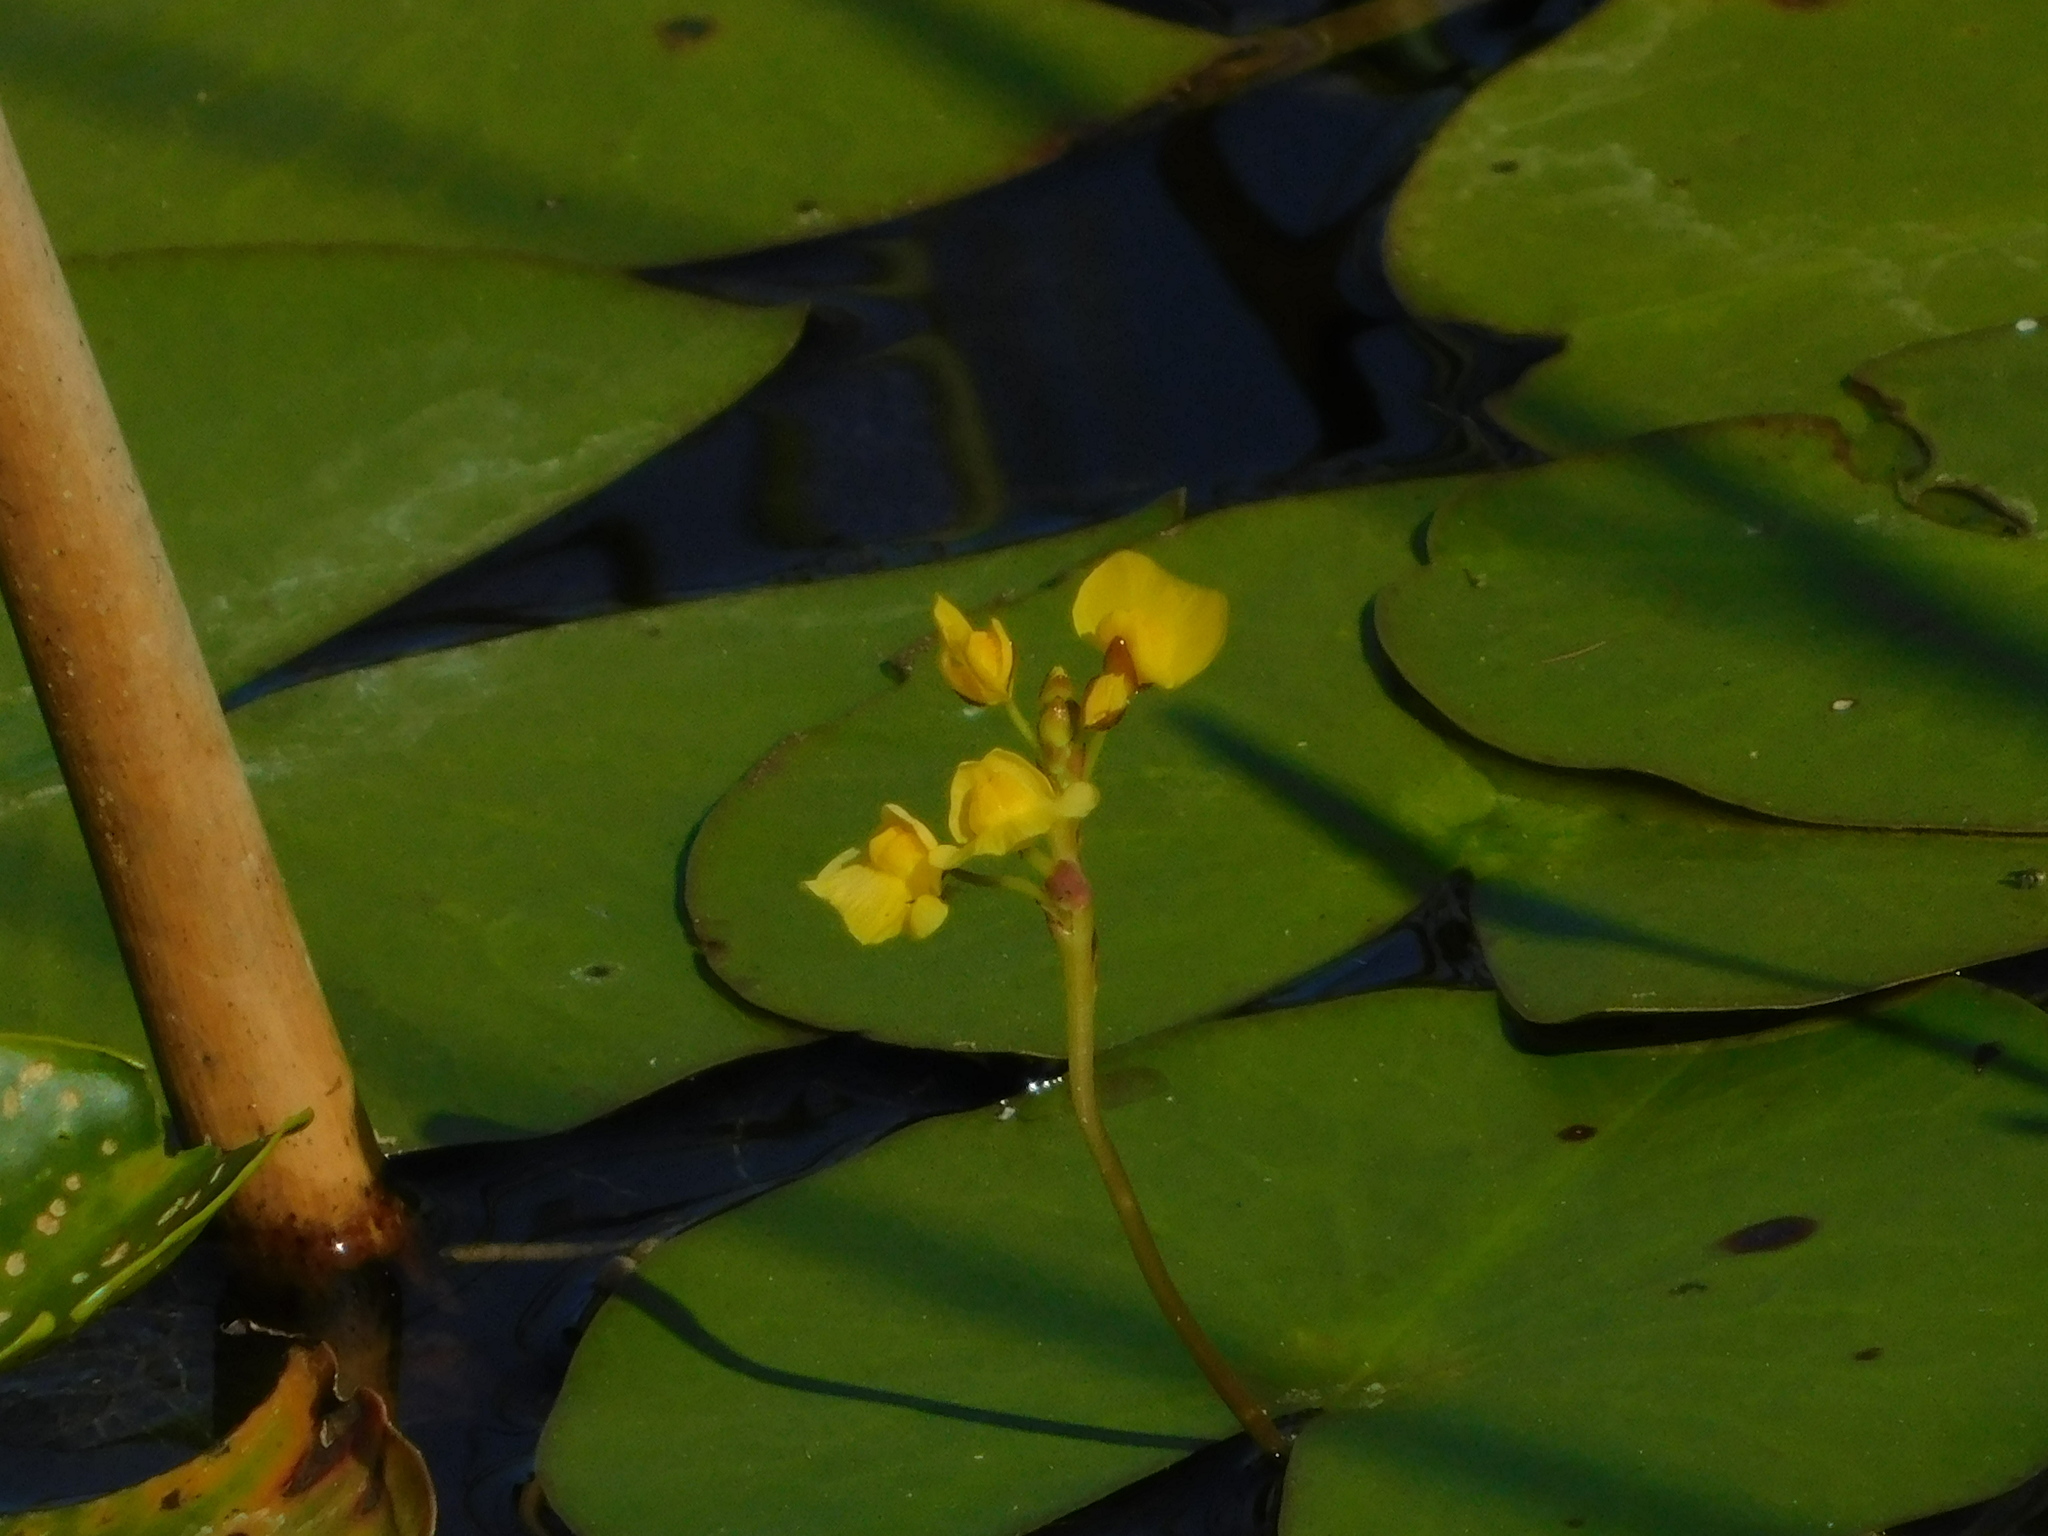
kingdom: Plantae
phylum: Tracheophyta
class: Magnoliopsida
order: Lamiales
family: Lentibulariaceae
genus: Utricularia
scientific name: Utricularia foliosa
